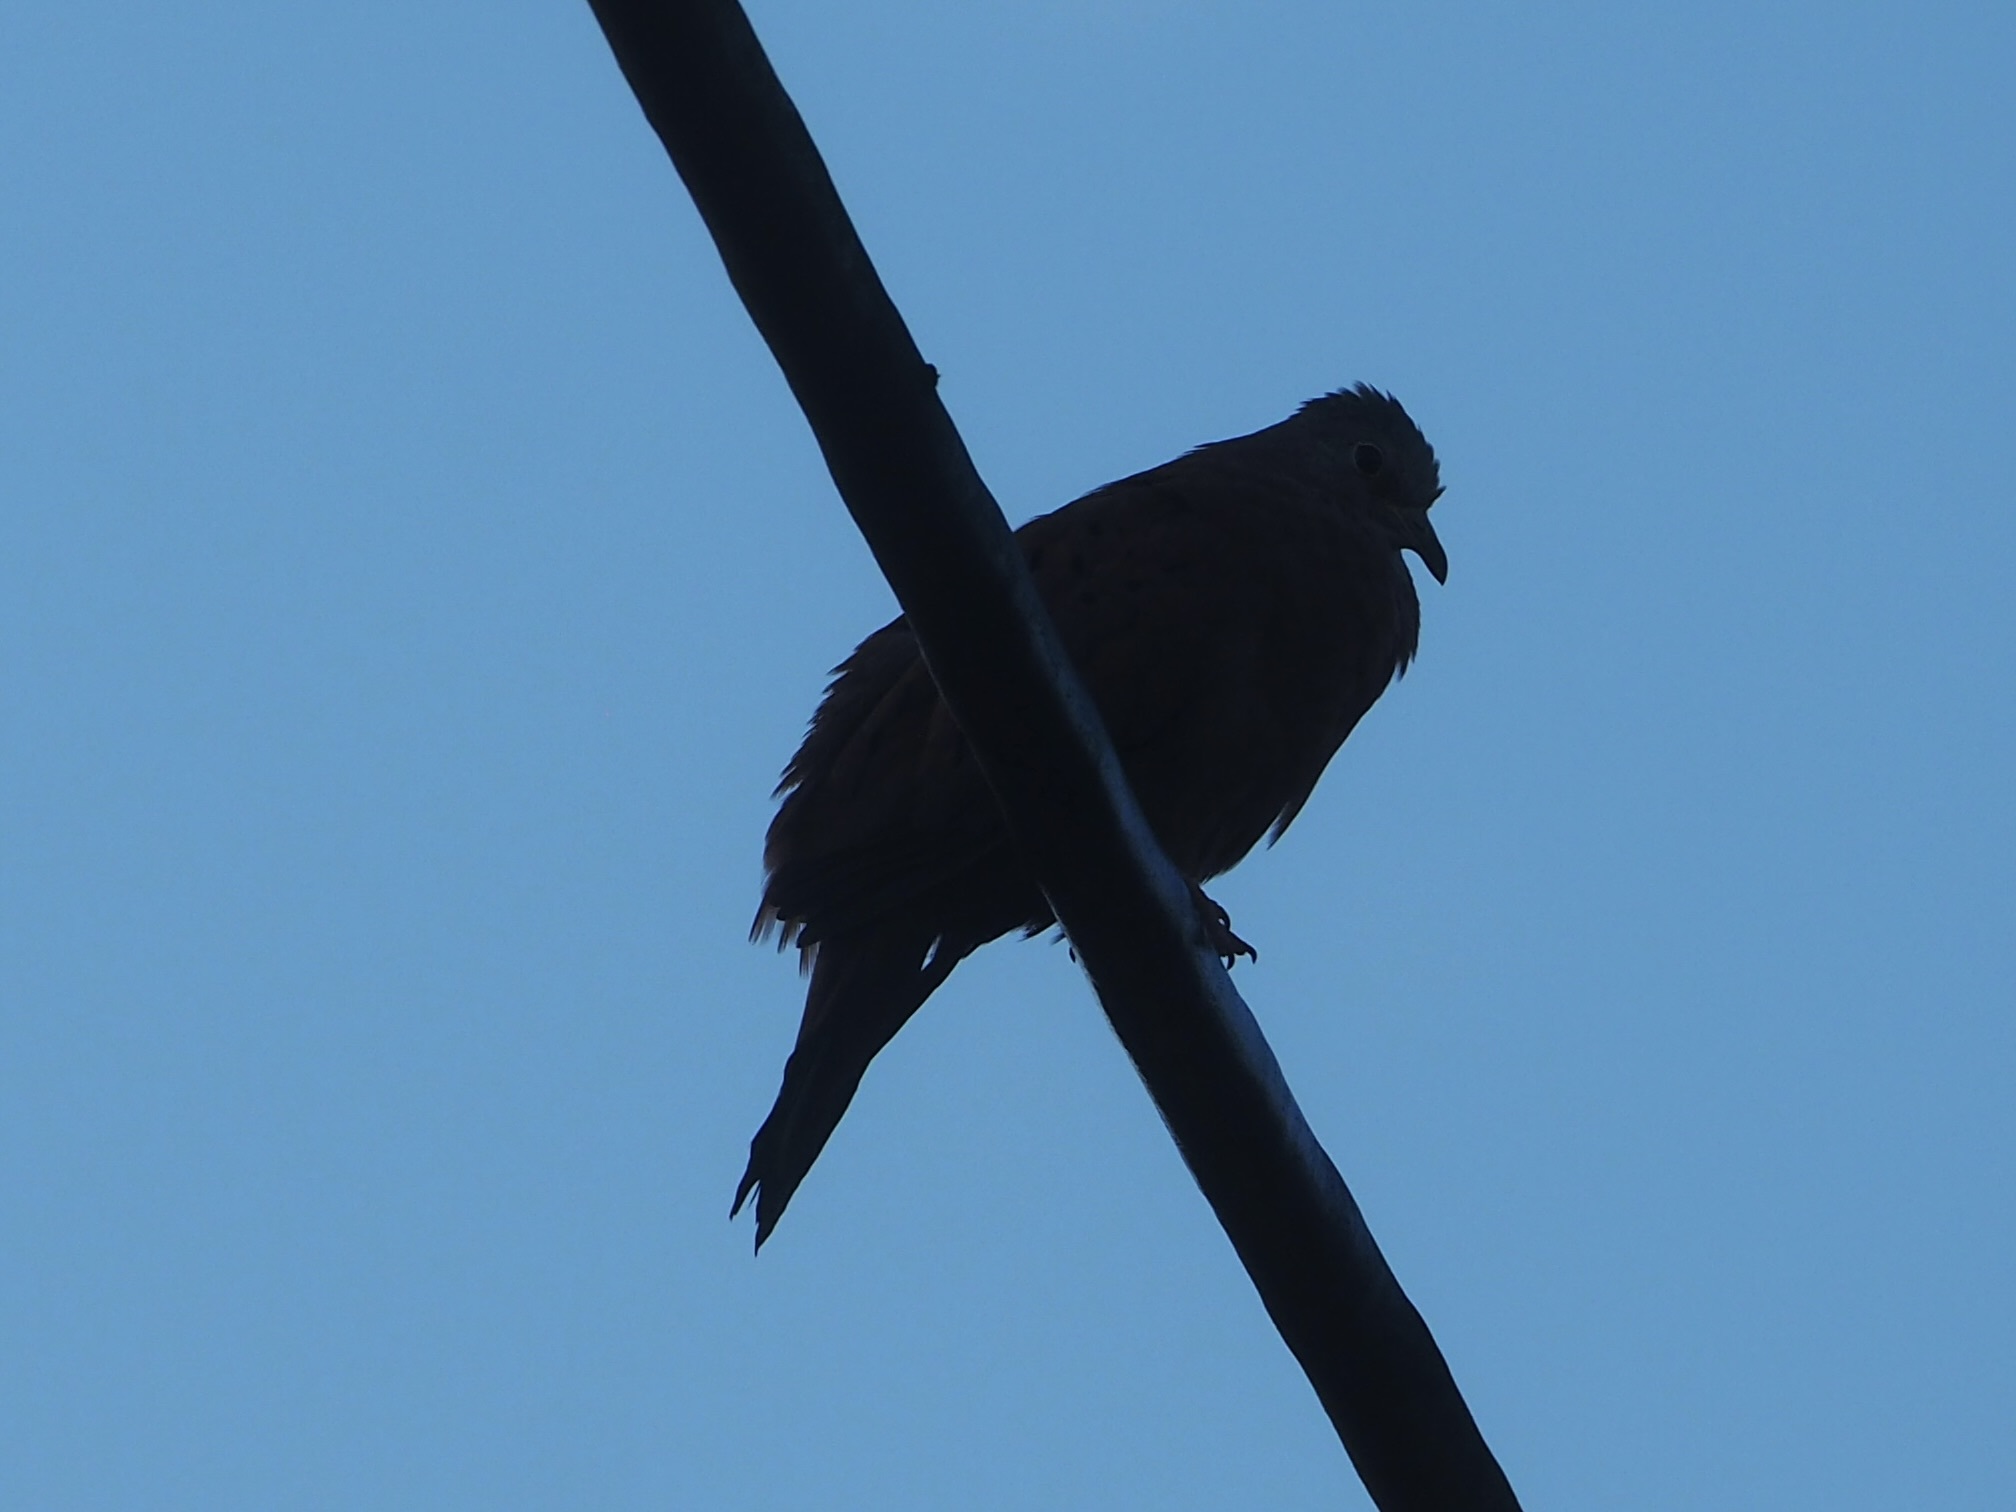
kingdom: Animalia
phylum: Chordata
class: Aves
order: Columbiformes
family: Columbidae
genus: Columbina
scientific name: Columbina talpacoti
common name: Ruddy ground dove
